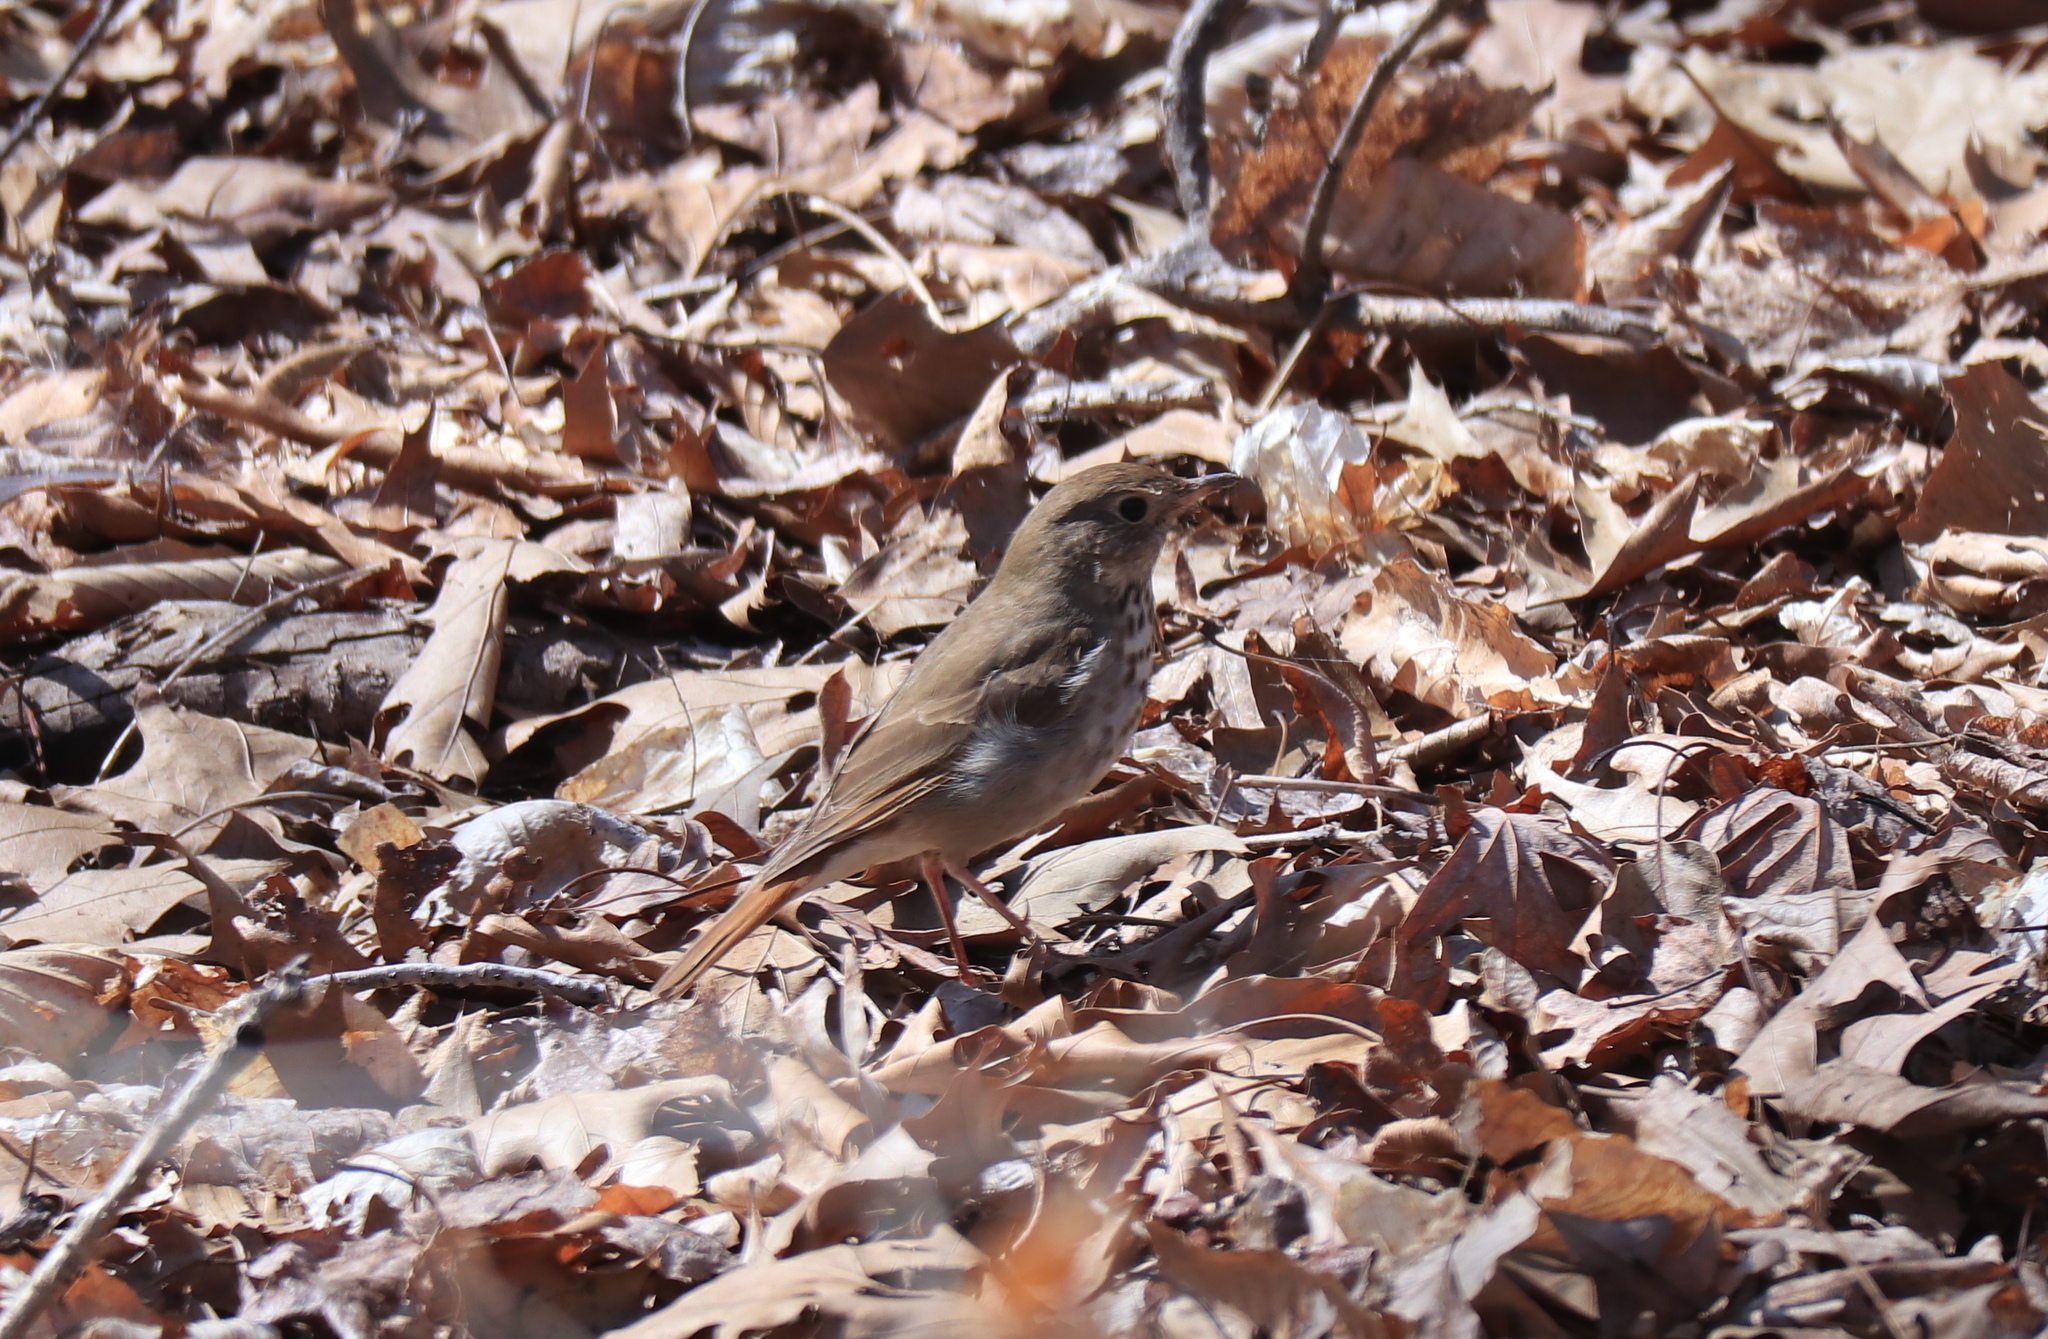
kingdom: Animalia
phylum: Chordata
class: Aves
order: Passeriformes
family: Turdidae
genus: Catharus
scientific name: Catharus guttatus
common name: Hermit thrush
